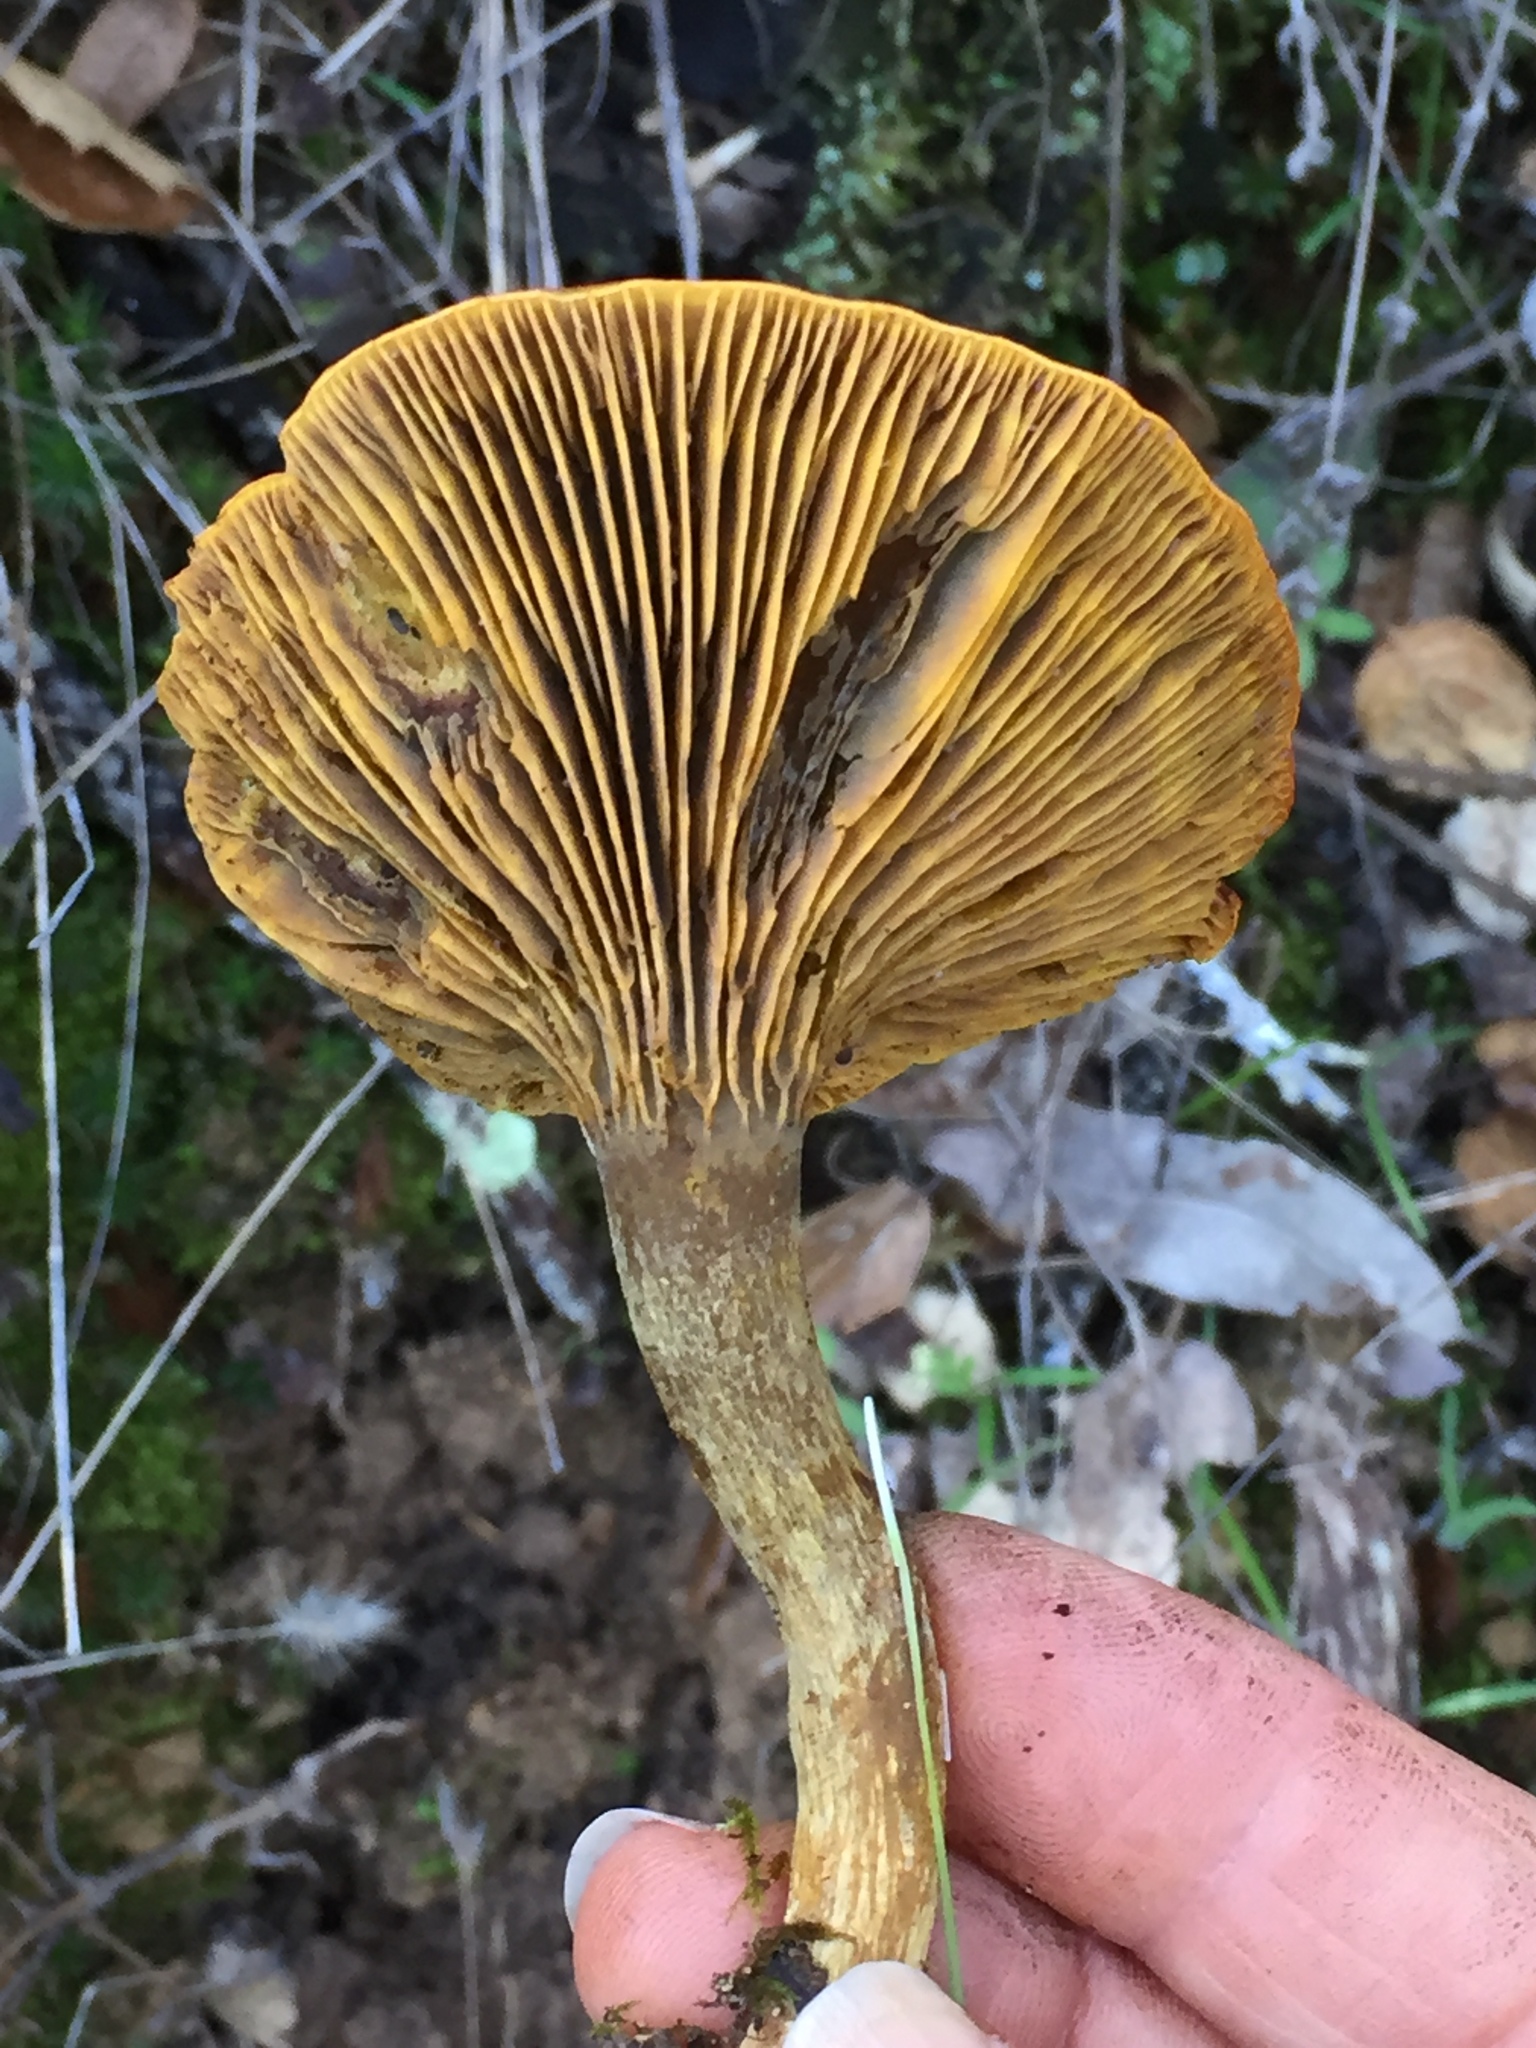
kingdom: Fungi
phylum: Basidiomycota
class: Agaricomycetes
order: Agaricales
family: Omphalotaceae
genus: Omphalotus
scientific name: Omphalotus olivascens
